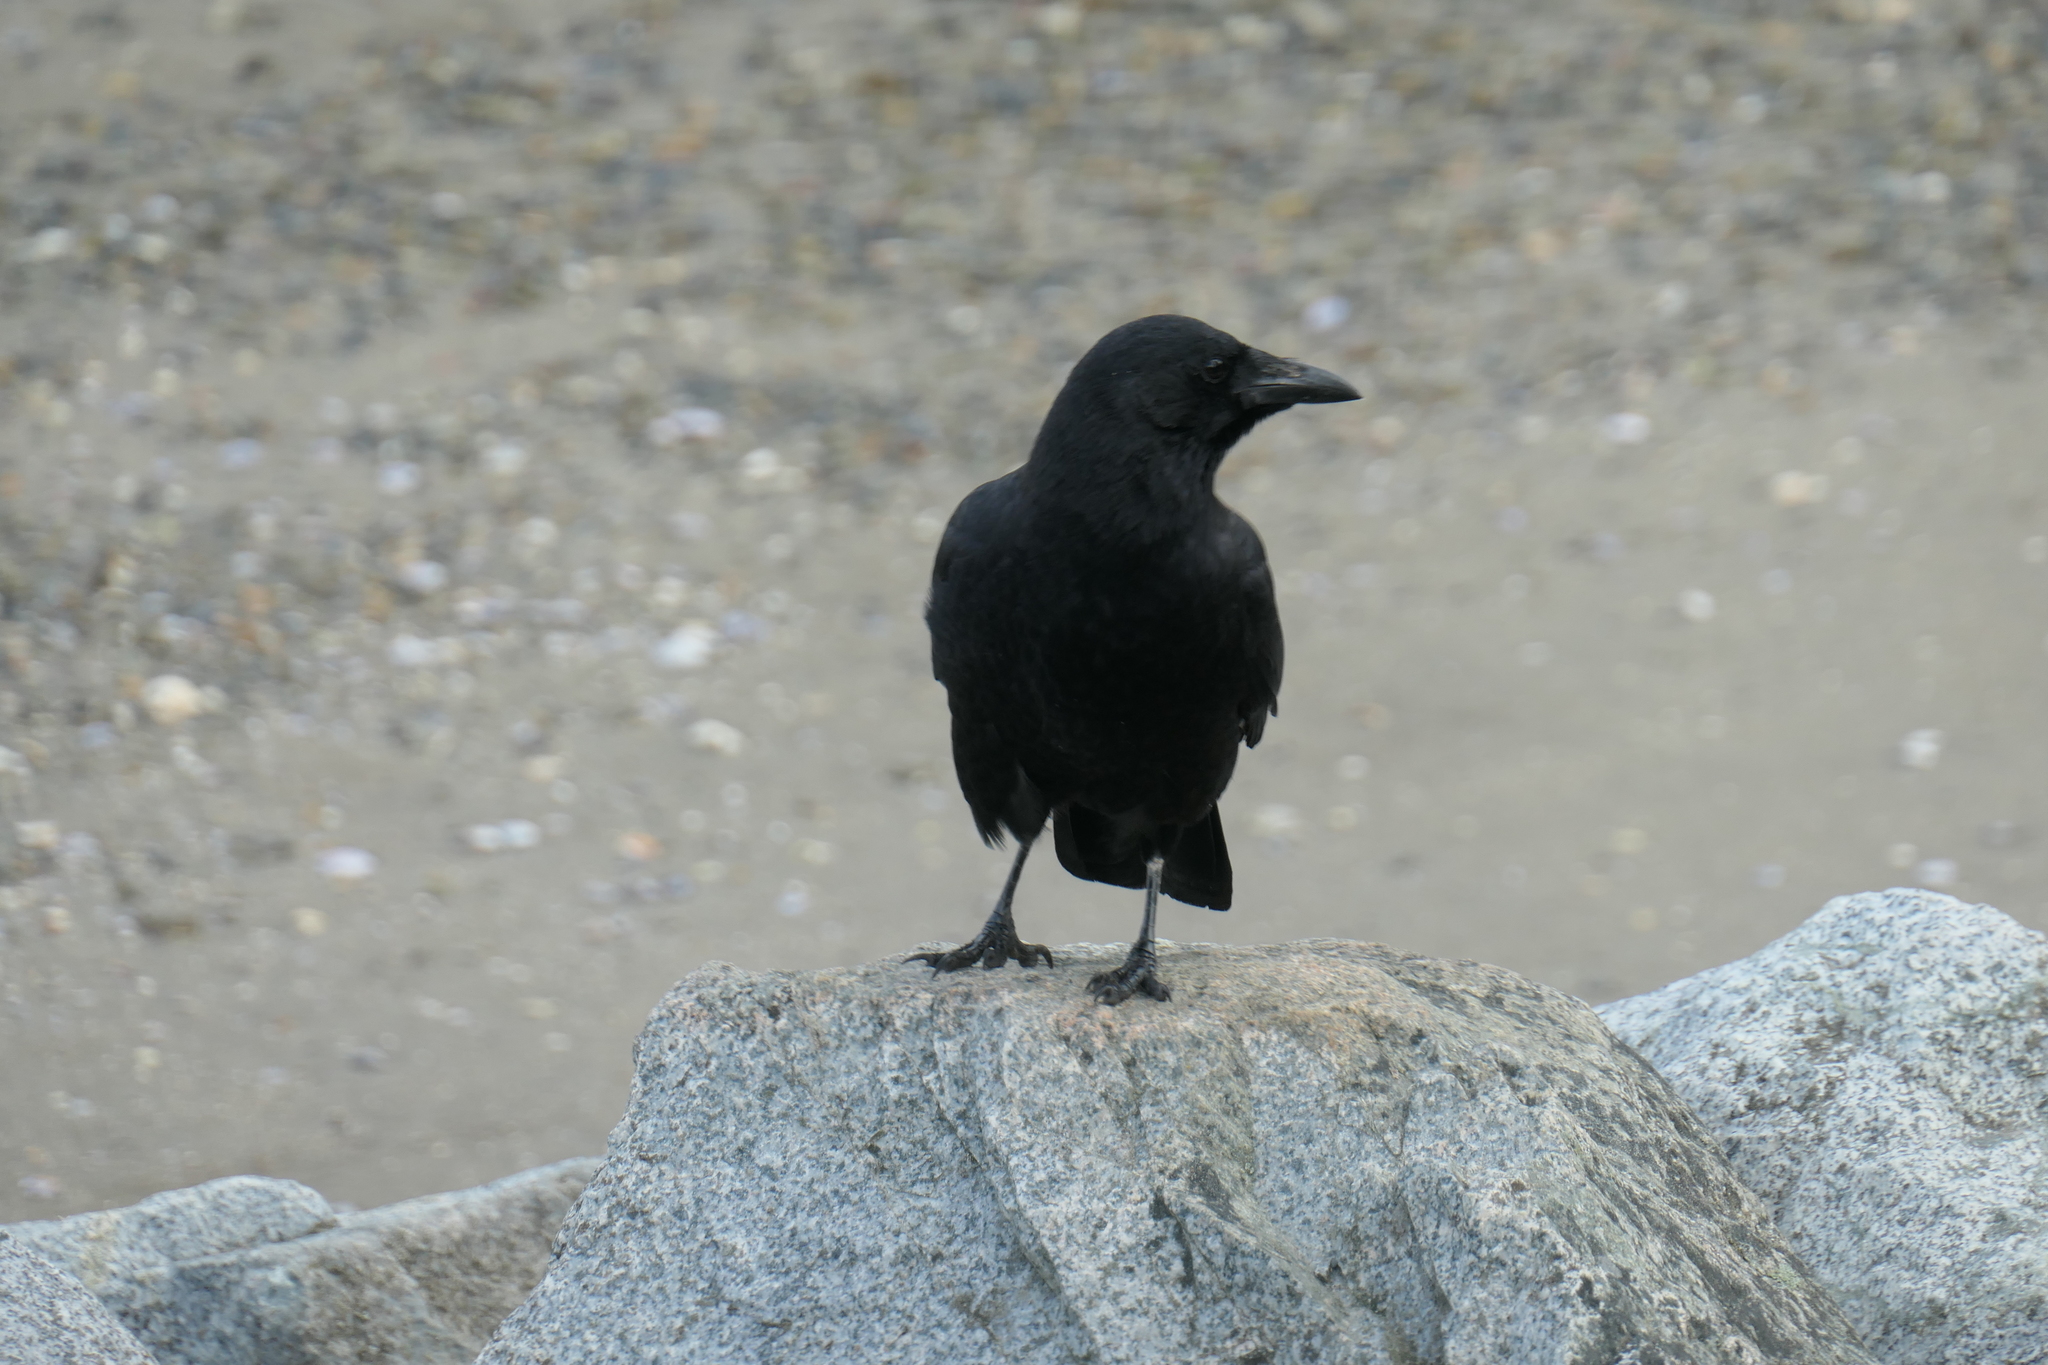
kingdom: Animalia
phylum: Chordata
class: Aves
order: Passeriformes
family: Corvidae
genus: Corvus
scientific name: Corvus brachyrhynchos
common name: American crow
